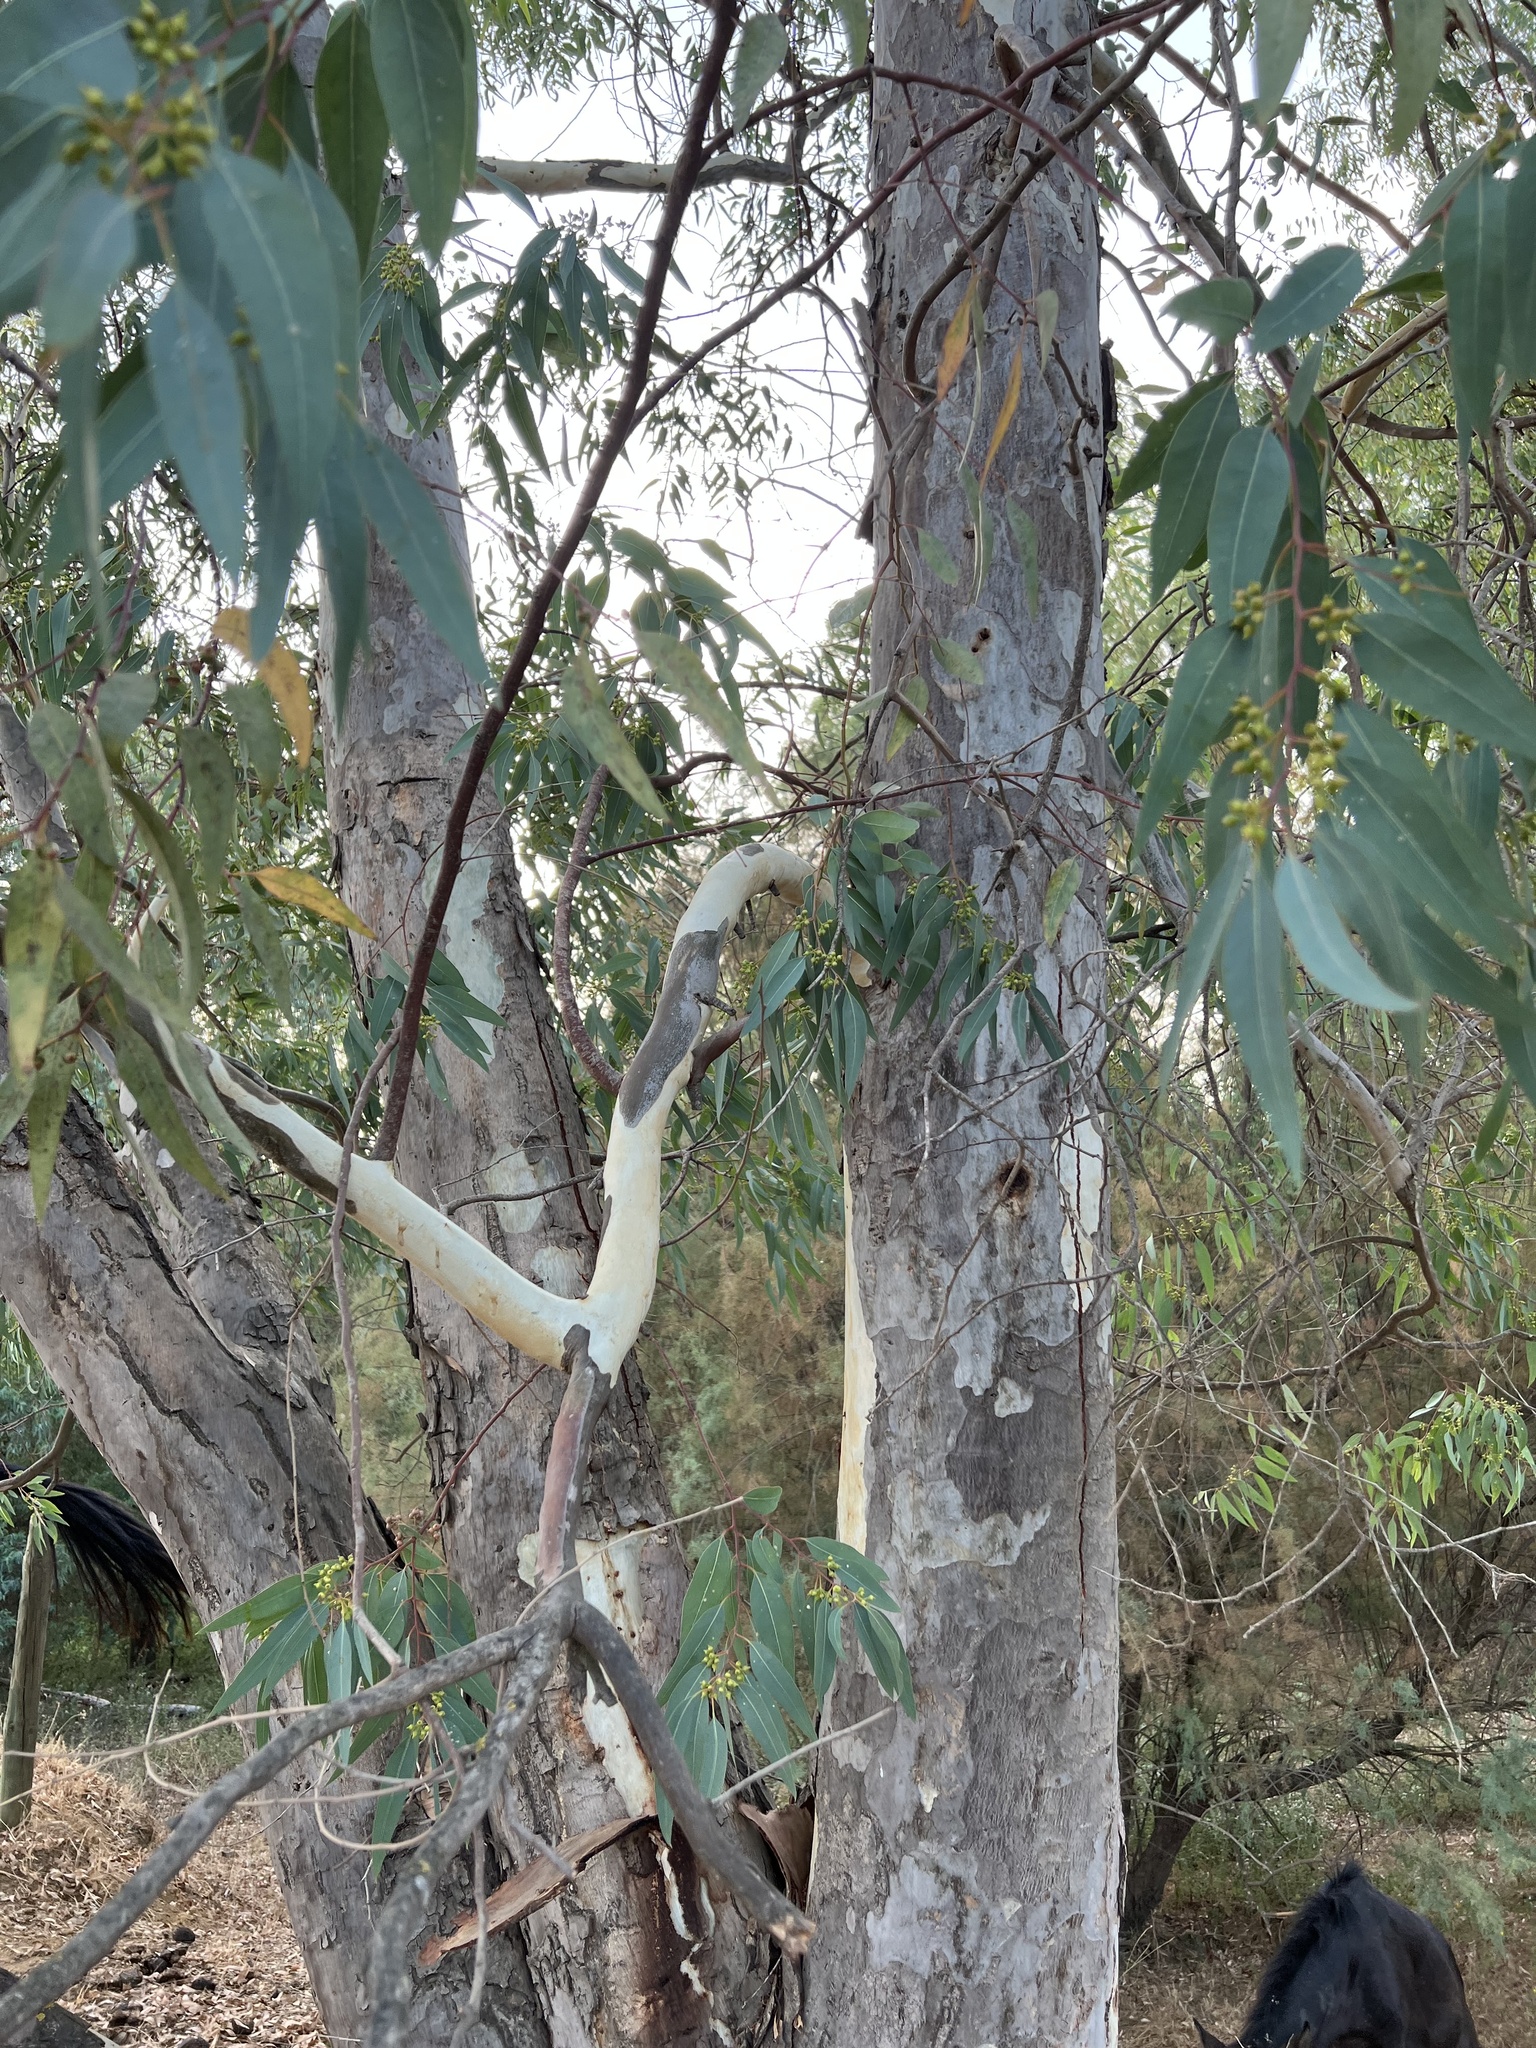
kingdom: Plantae
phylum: Tracheophyta
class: Magnoliopsida
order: Myrtales
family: Myrtaceae
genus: Eucalyptus
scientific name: Eucalyptus camaldulensis
